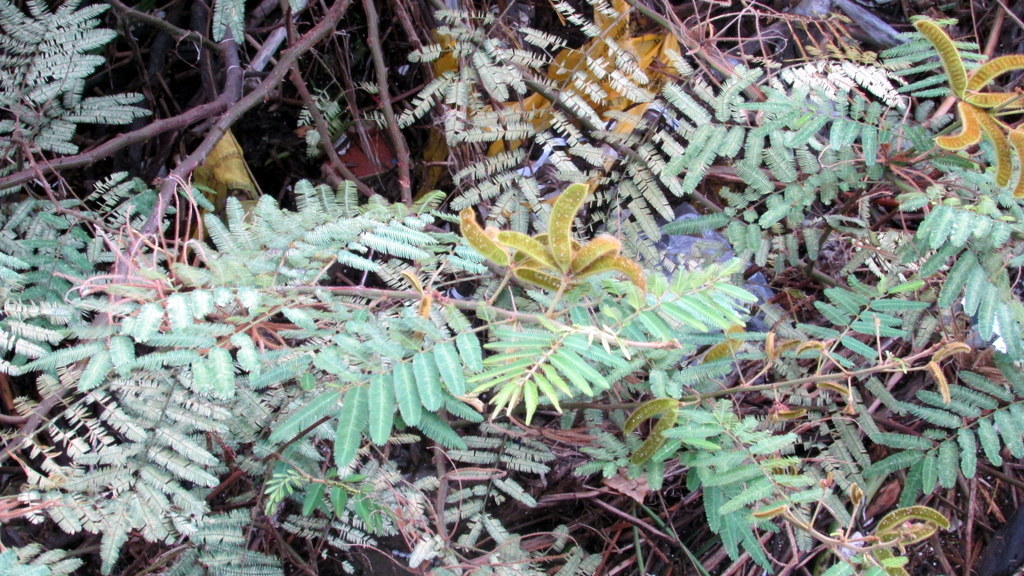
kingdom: Plantae
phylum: Tracheophyta
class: Magnoliopsida
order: Fabales
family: Fabaceae
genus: Calliandra
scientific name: Calliandra tweediei
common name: Mexican flamebush
